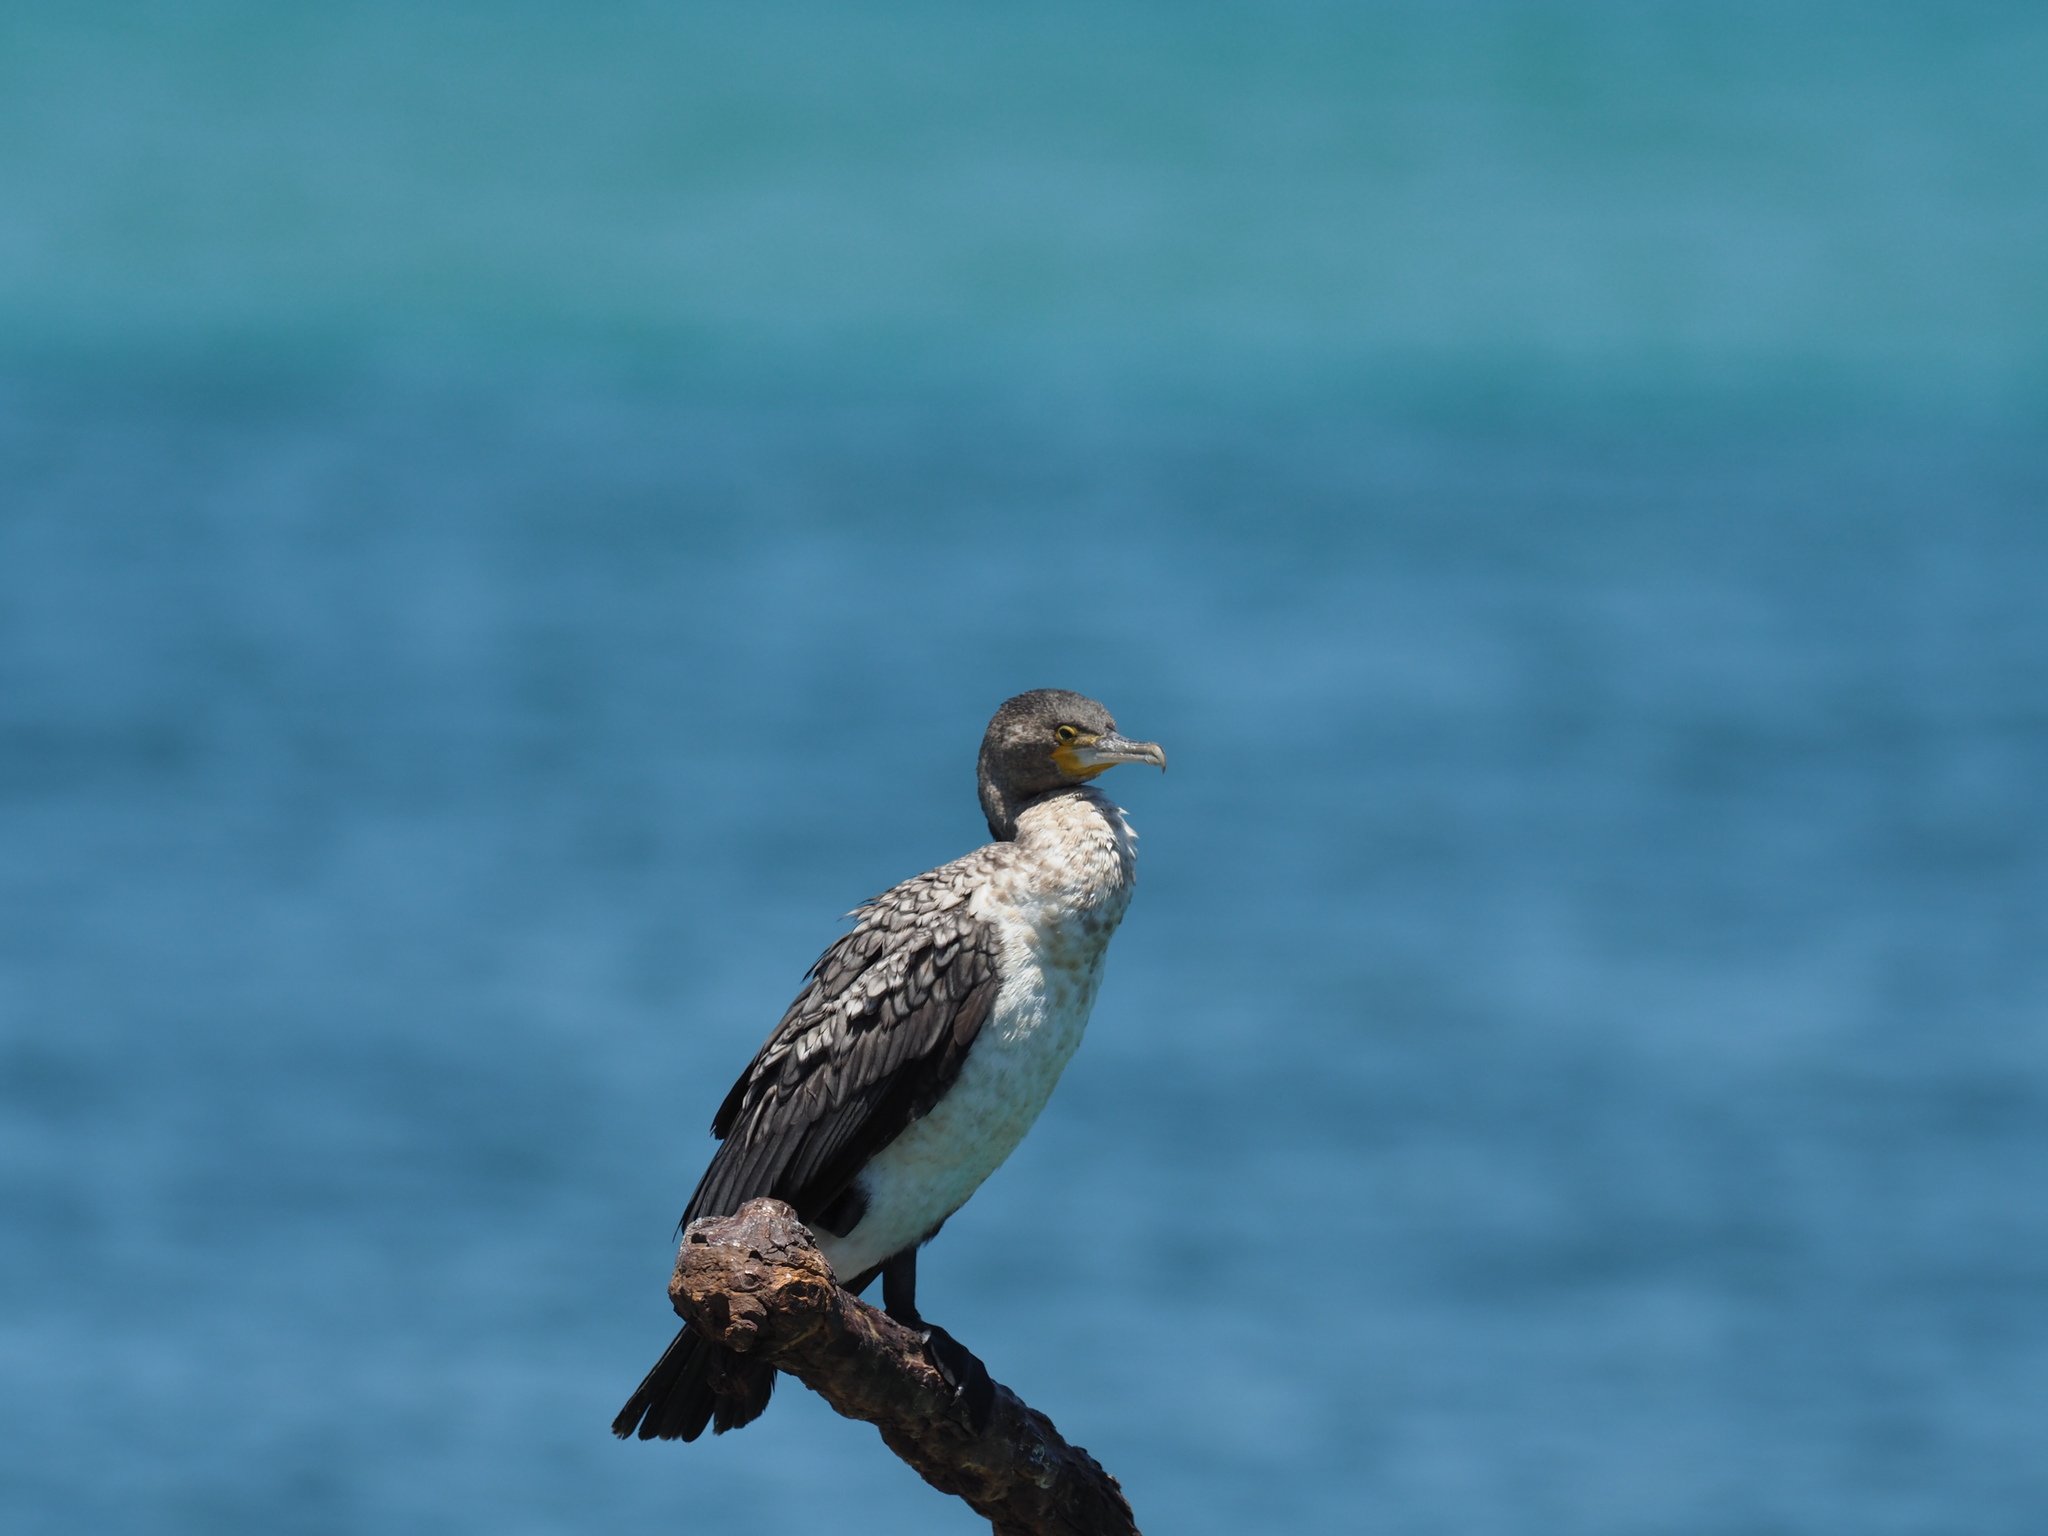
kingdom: Animalia
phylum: Chordata
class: Aves
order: Suliformes
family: Phalacrocoracidae
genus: Phalacrocorax
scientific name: Phalacrocorax carbo
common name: Great cormorant
